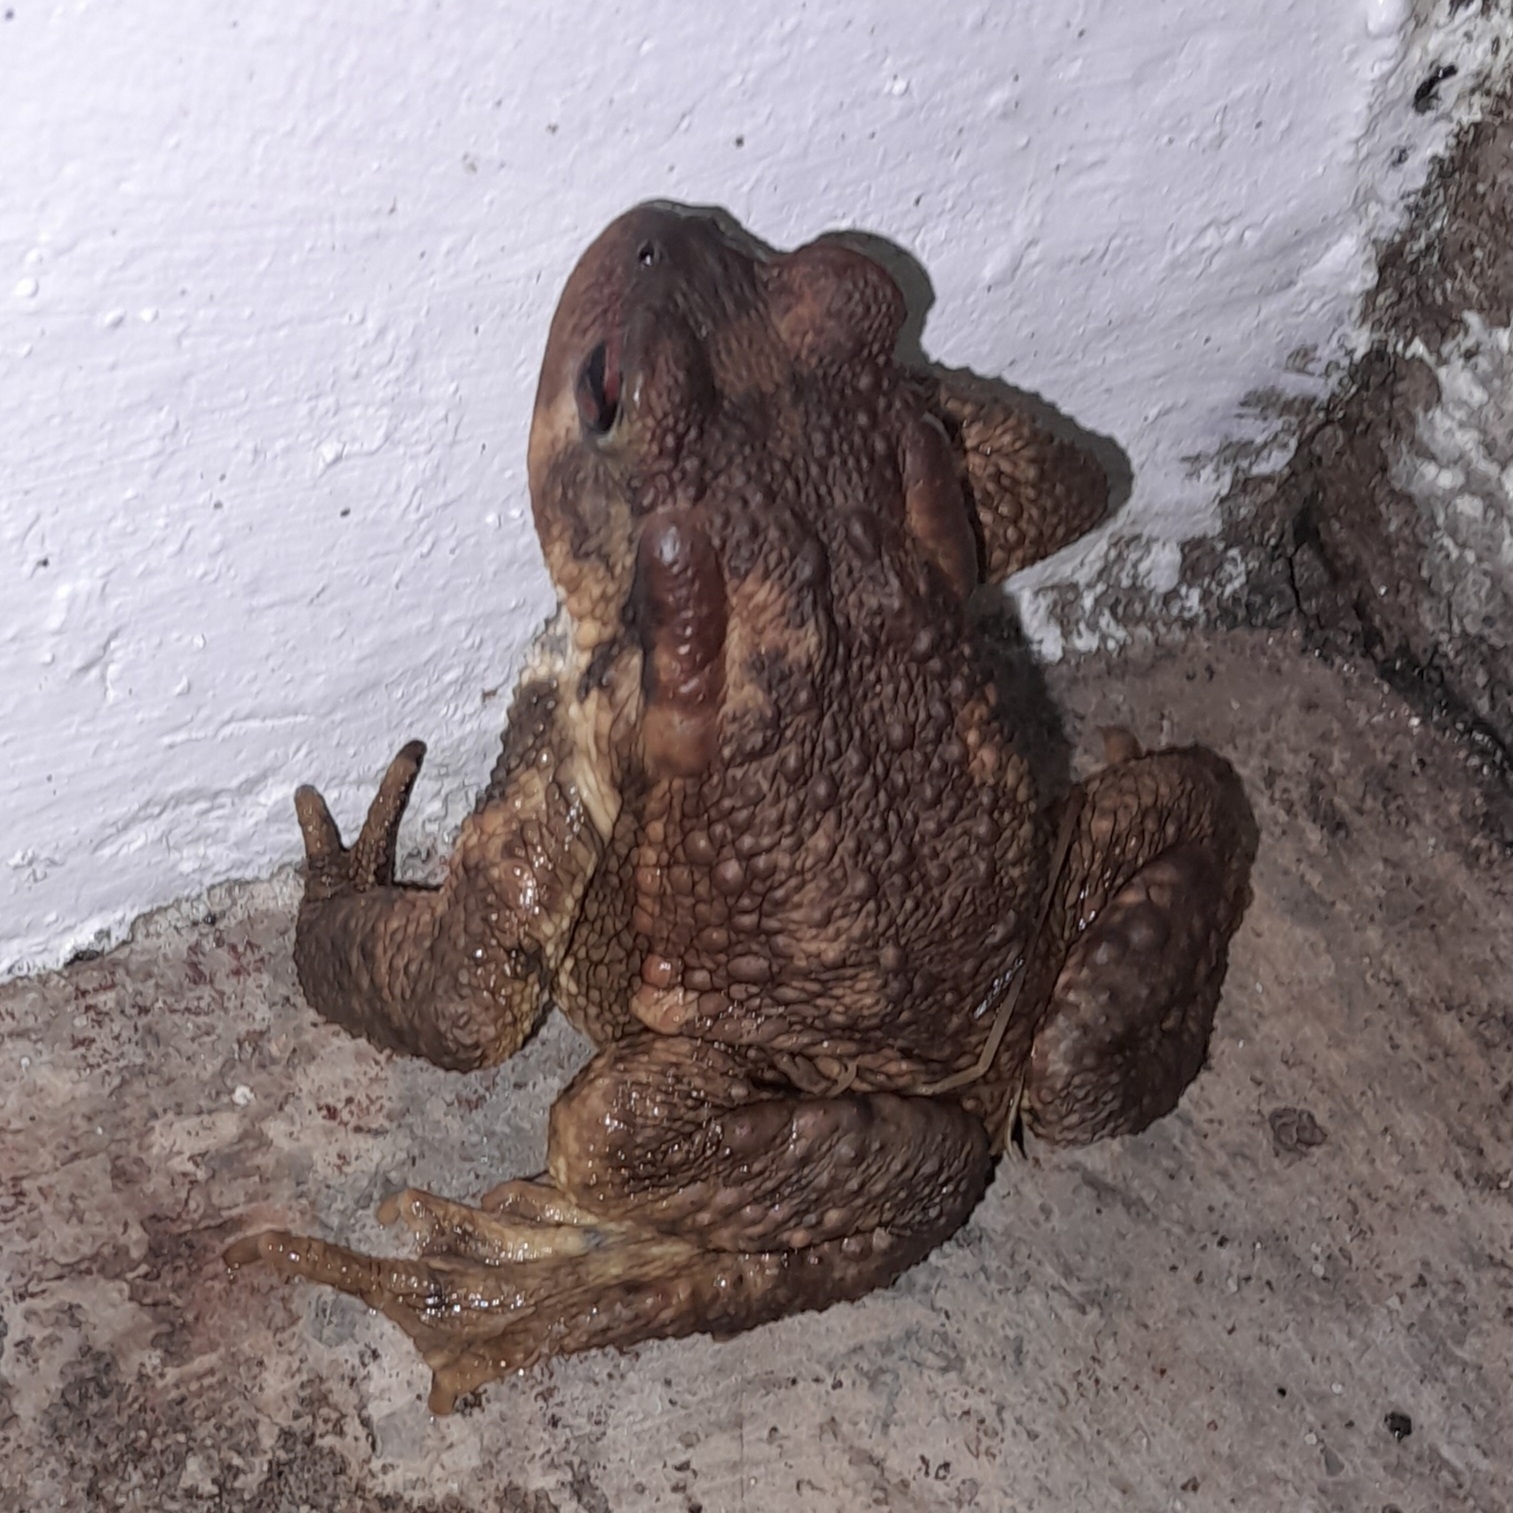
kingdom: Animalia
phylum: Chordata
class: Amphibia
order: Anura
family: Bufonidae
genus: Bufo
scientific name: Bufo spinosus
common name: Western common toad
